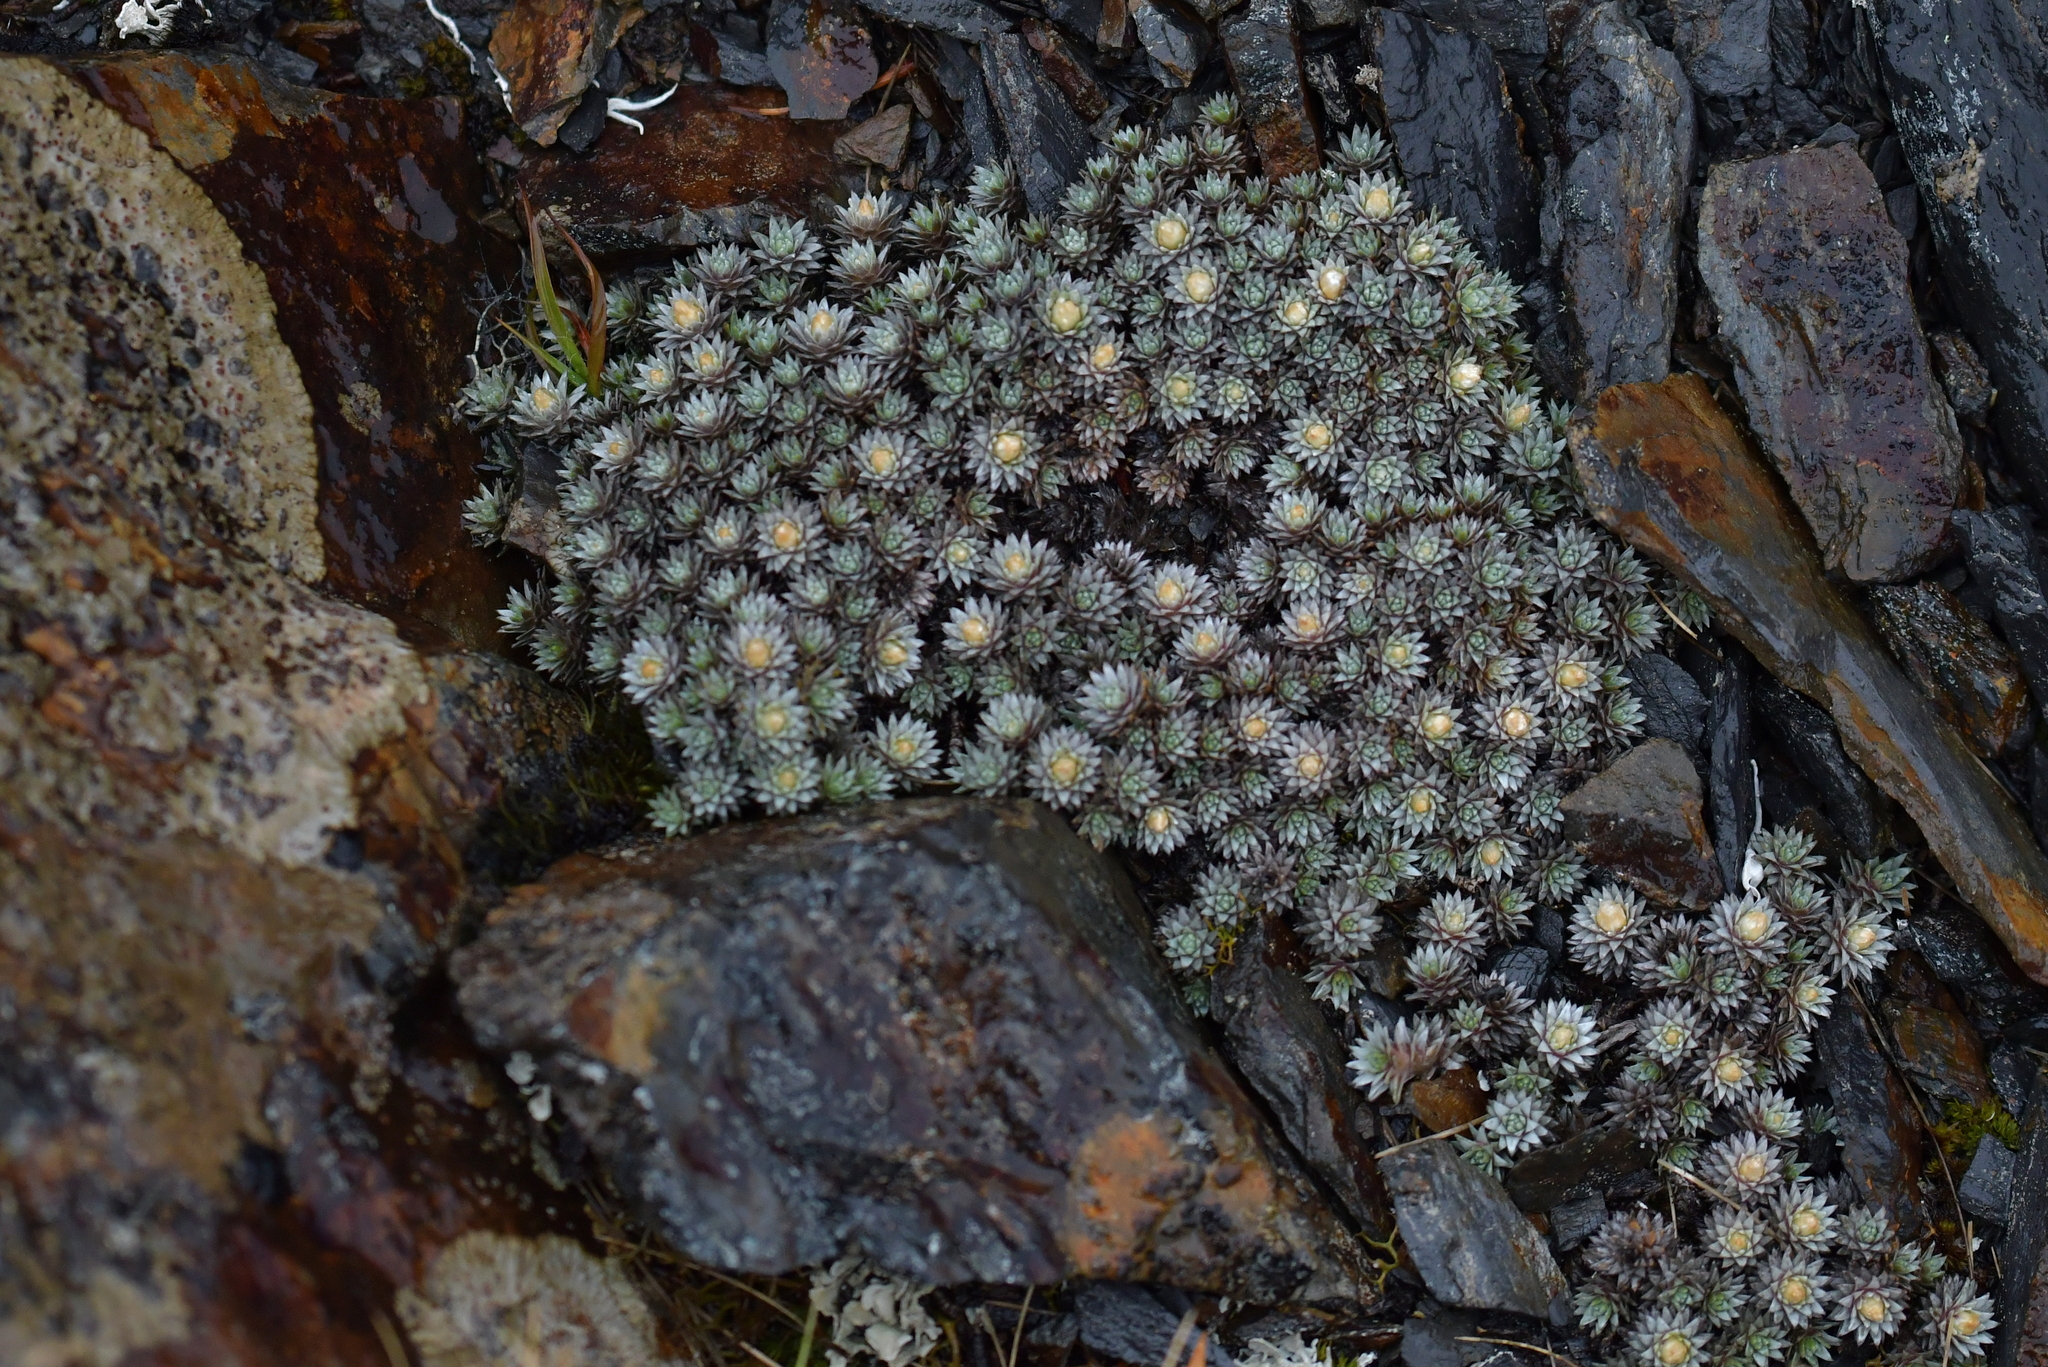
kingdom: Plantae
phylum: Tracheophyta
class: Magnoliopsida
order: Asterales
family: Asteraceae
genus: Raoulia
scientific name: Raoulia grandiflora
